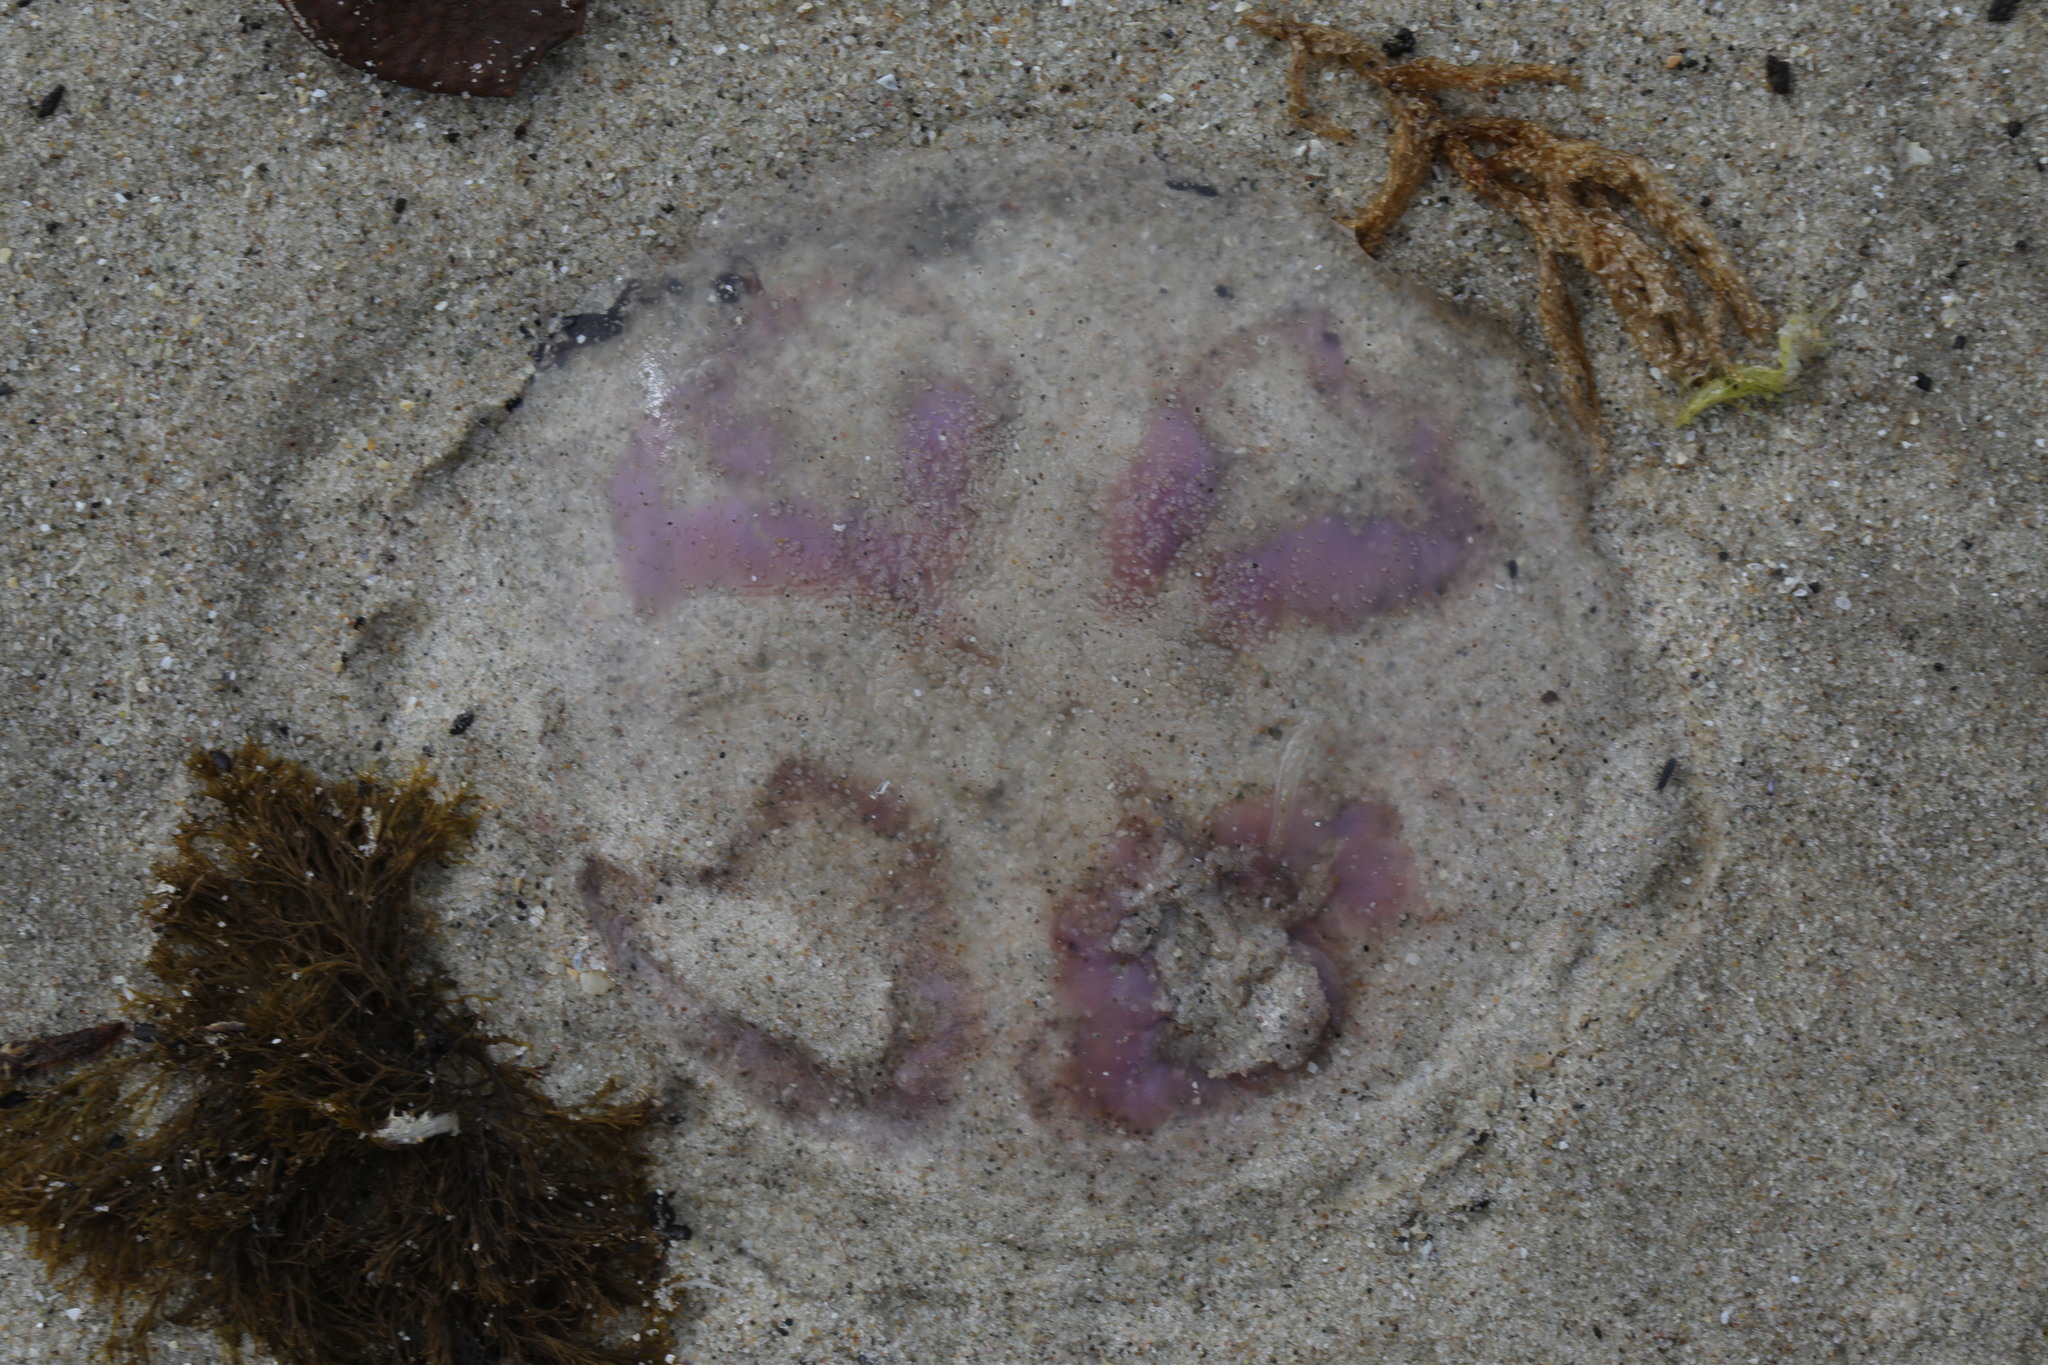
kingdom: Animalia
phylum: Cnidaria
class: Scyphozoa
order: Semaeostomeae
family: Ulmaridae
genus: Aurelia
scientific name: Aurelia aurita
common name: Moon jellyfish
